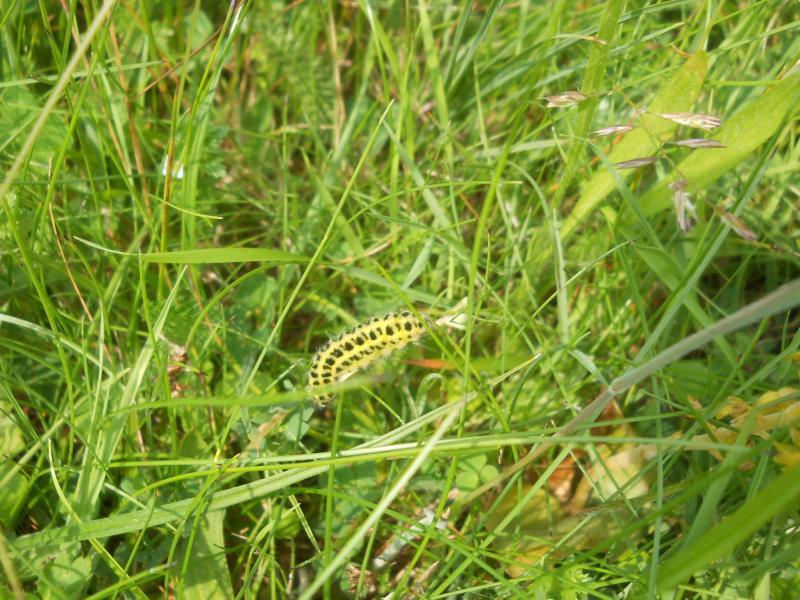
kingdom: Animalia
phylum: Arthropoda
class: Insecta
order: Lepidoptera
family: Zygaenidae
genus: Zygaena
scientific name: Zygaena filipendulae
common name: Six-spot burnet
